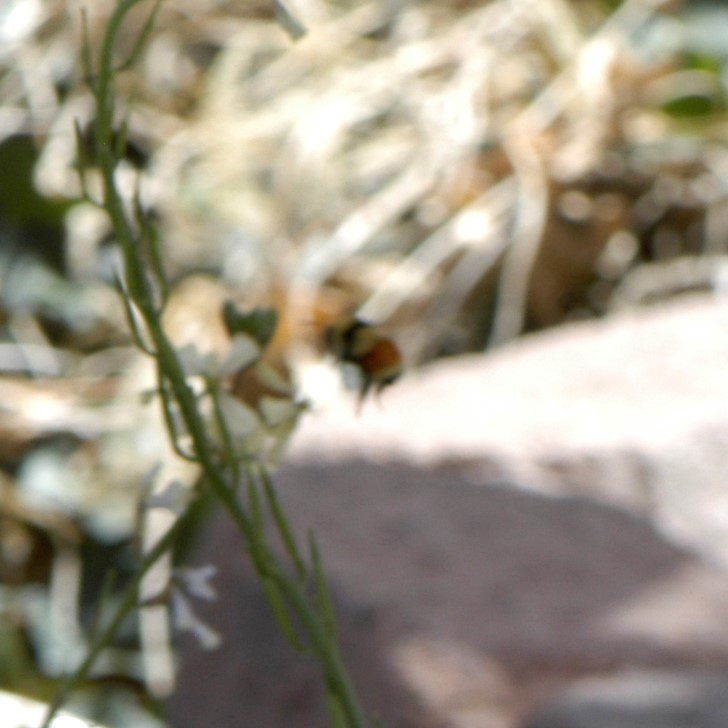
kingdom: Animalia
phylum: Arthropoda
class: Insecta
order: Hymenoptera
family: Apidae
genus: Bombus
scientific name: Bombus huntii
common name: Hunt bumble bee
